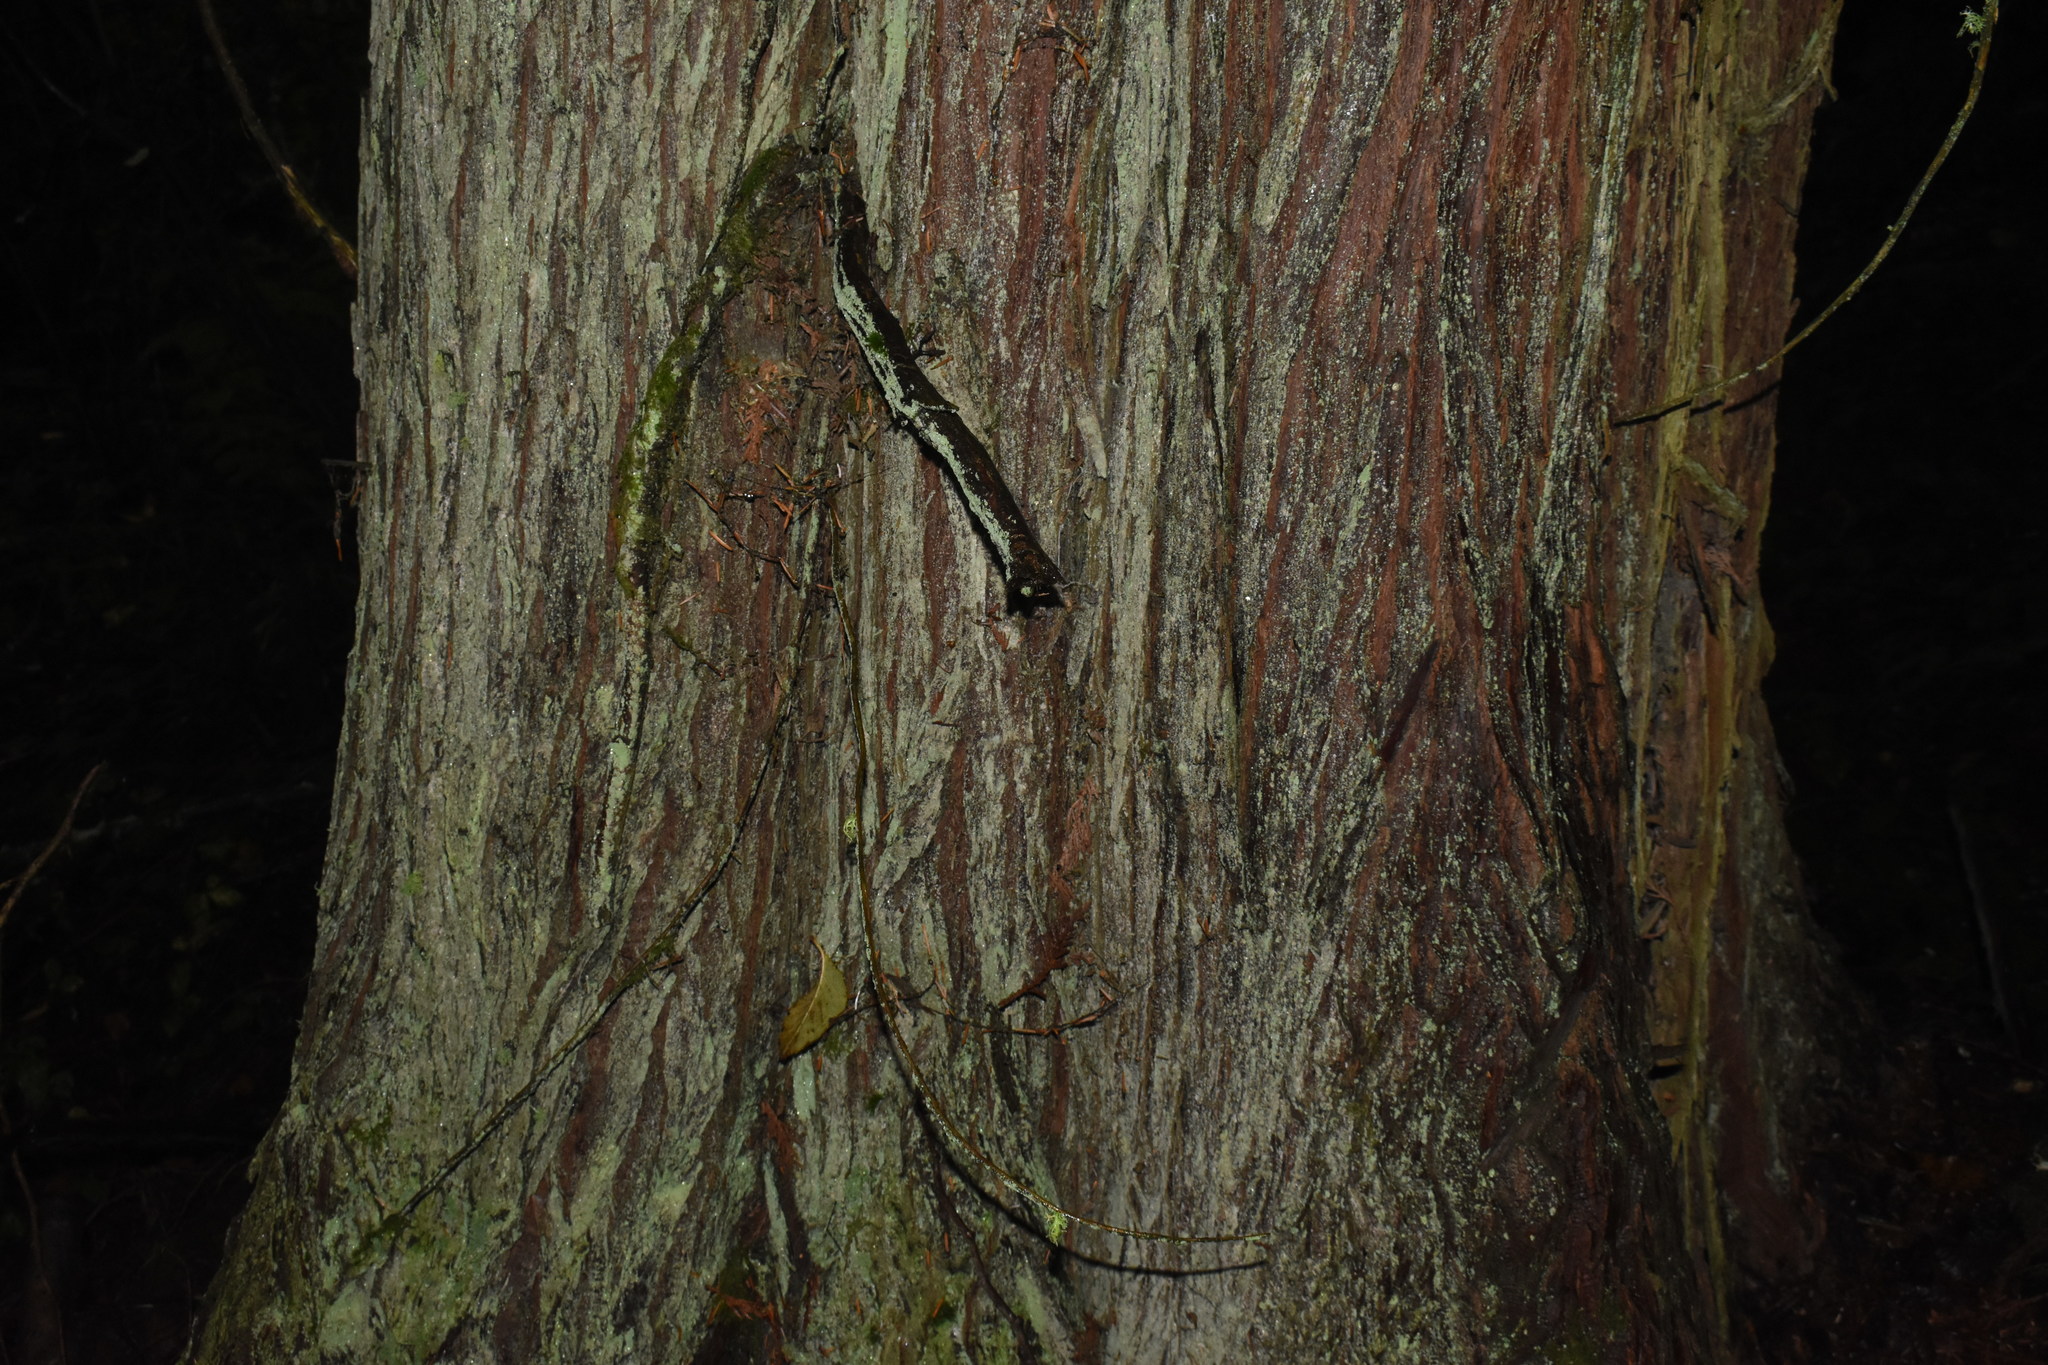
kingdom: Plantae
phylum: Tracheophyta
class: Pinopsida
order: Pinales
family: Cupressaceae
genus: Thuja
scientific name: Thuja plicata
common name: Western red-cedar
